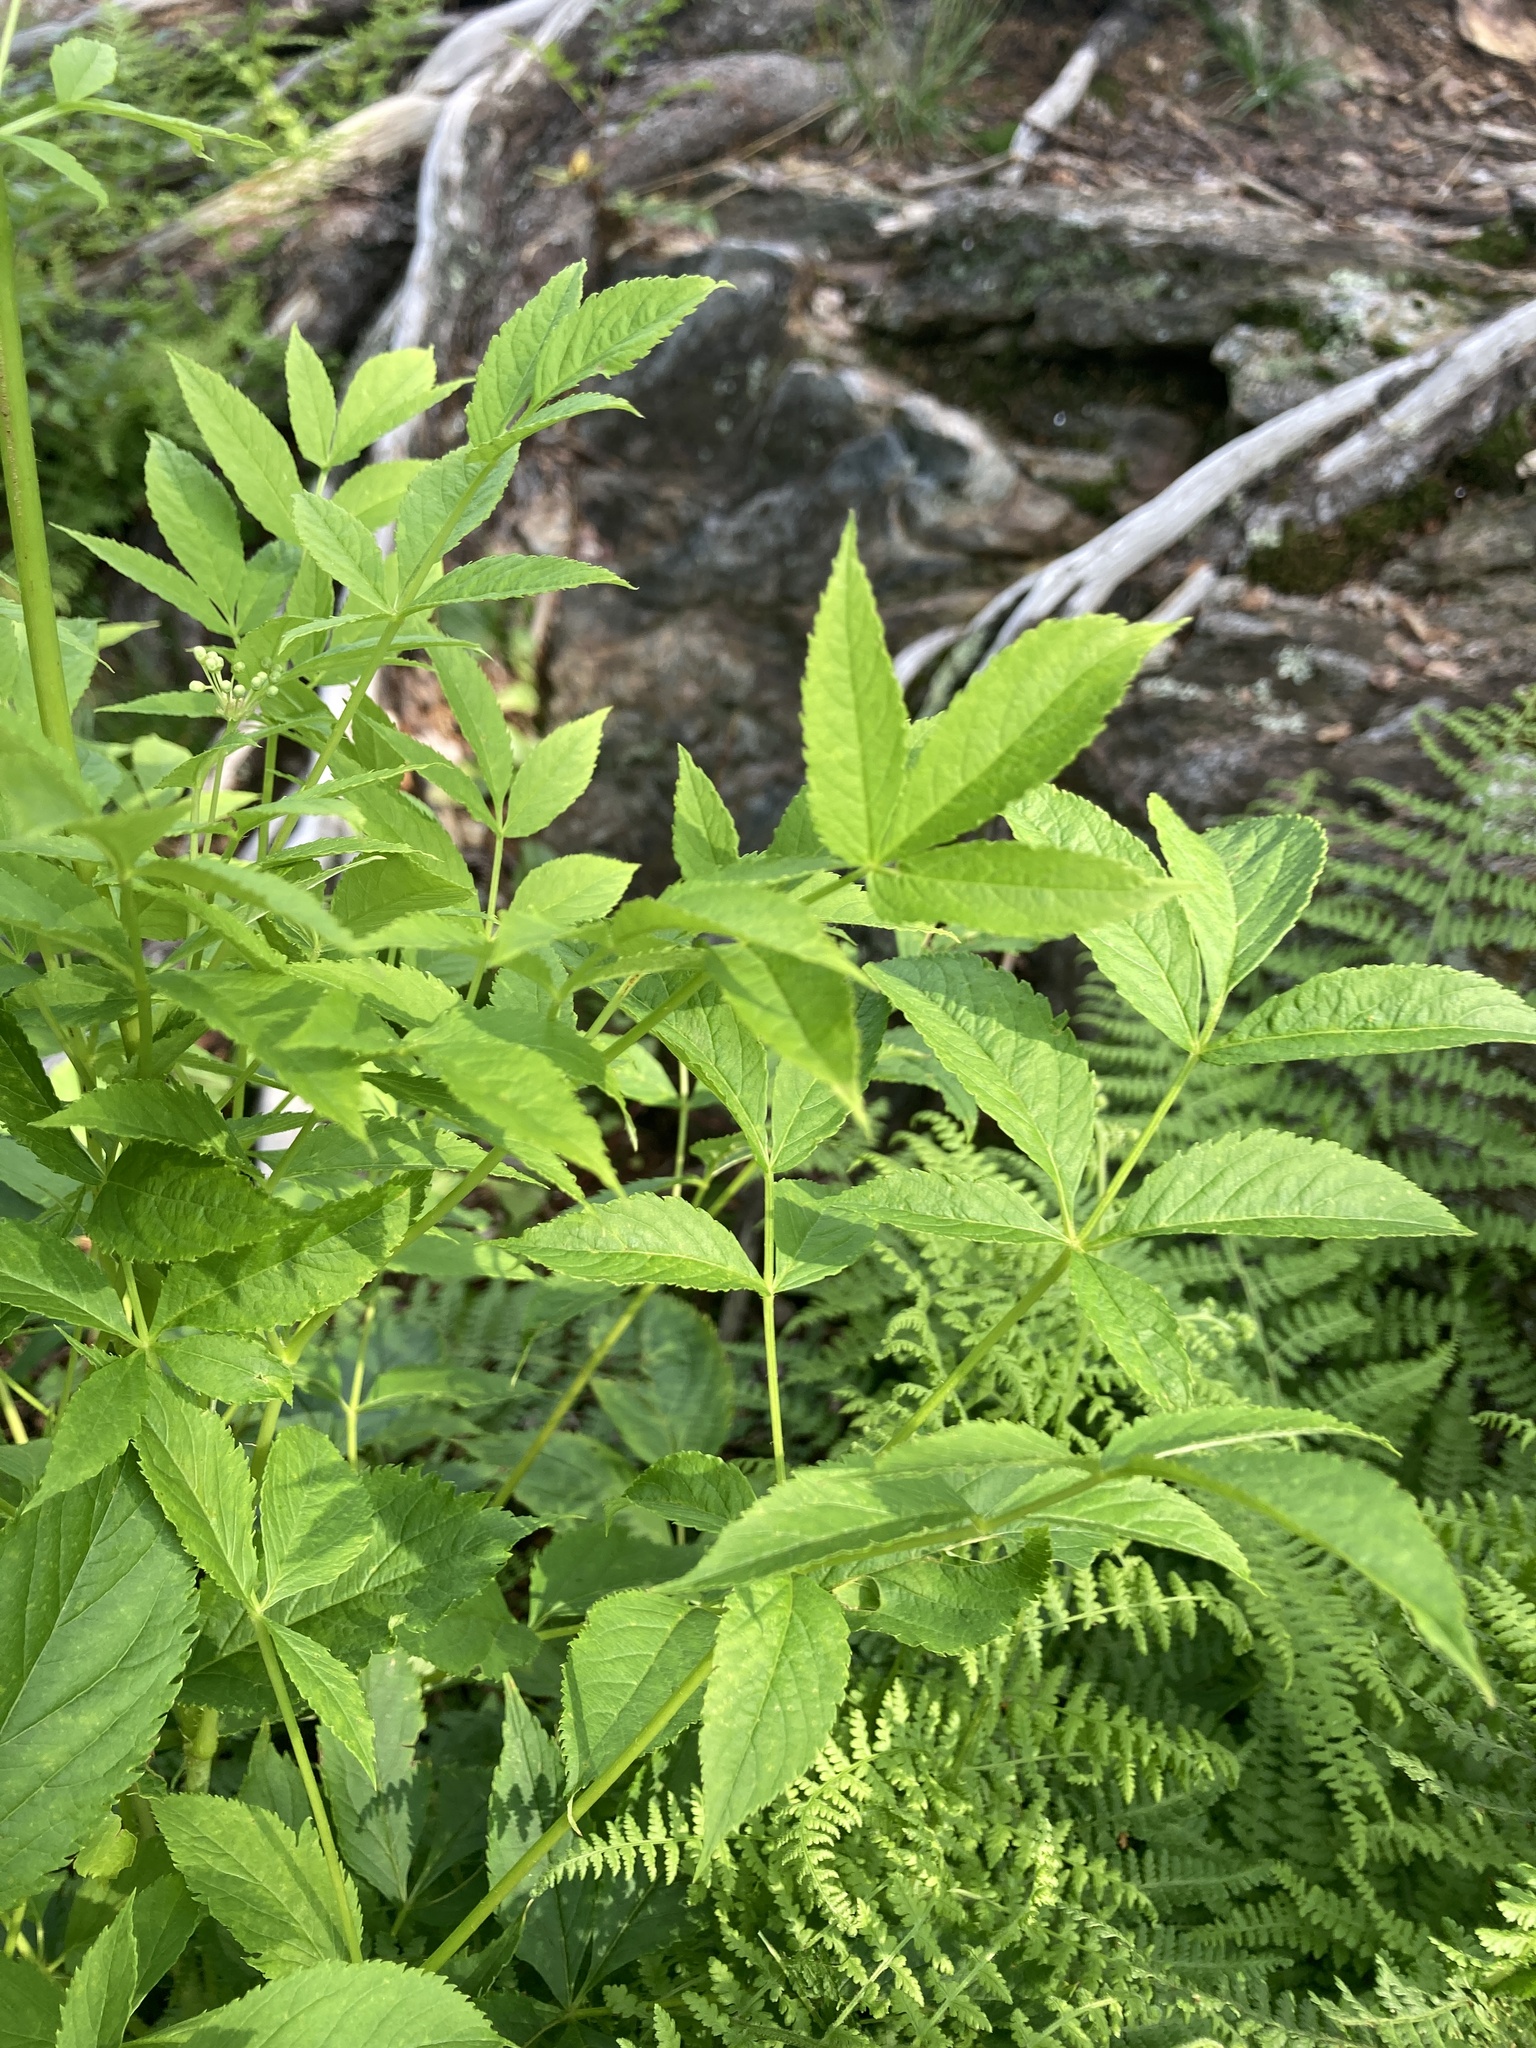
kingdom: Plantae
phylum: Tracheophyta
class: Magnoliopsida
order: Apiales
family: Araliaceae
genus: Aralia
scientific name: Aralia hispida
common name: Bristly sarsaparilla
